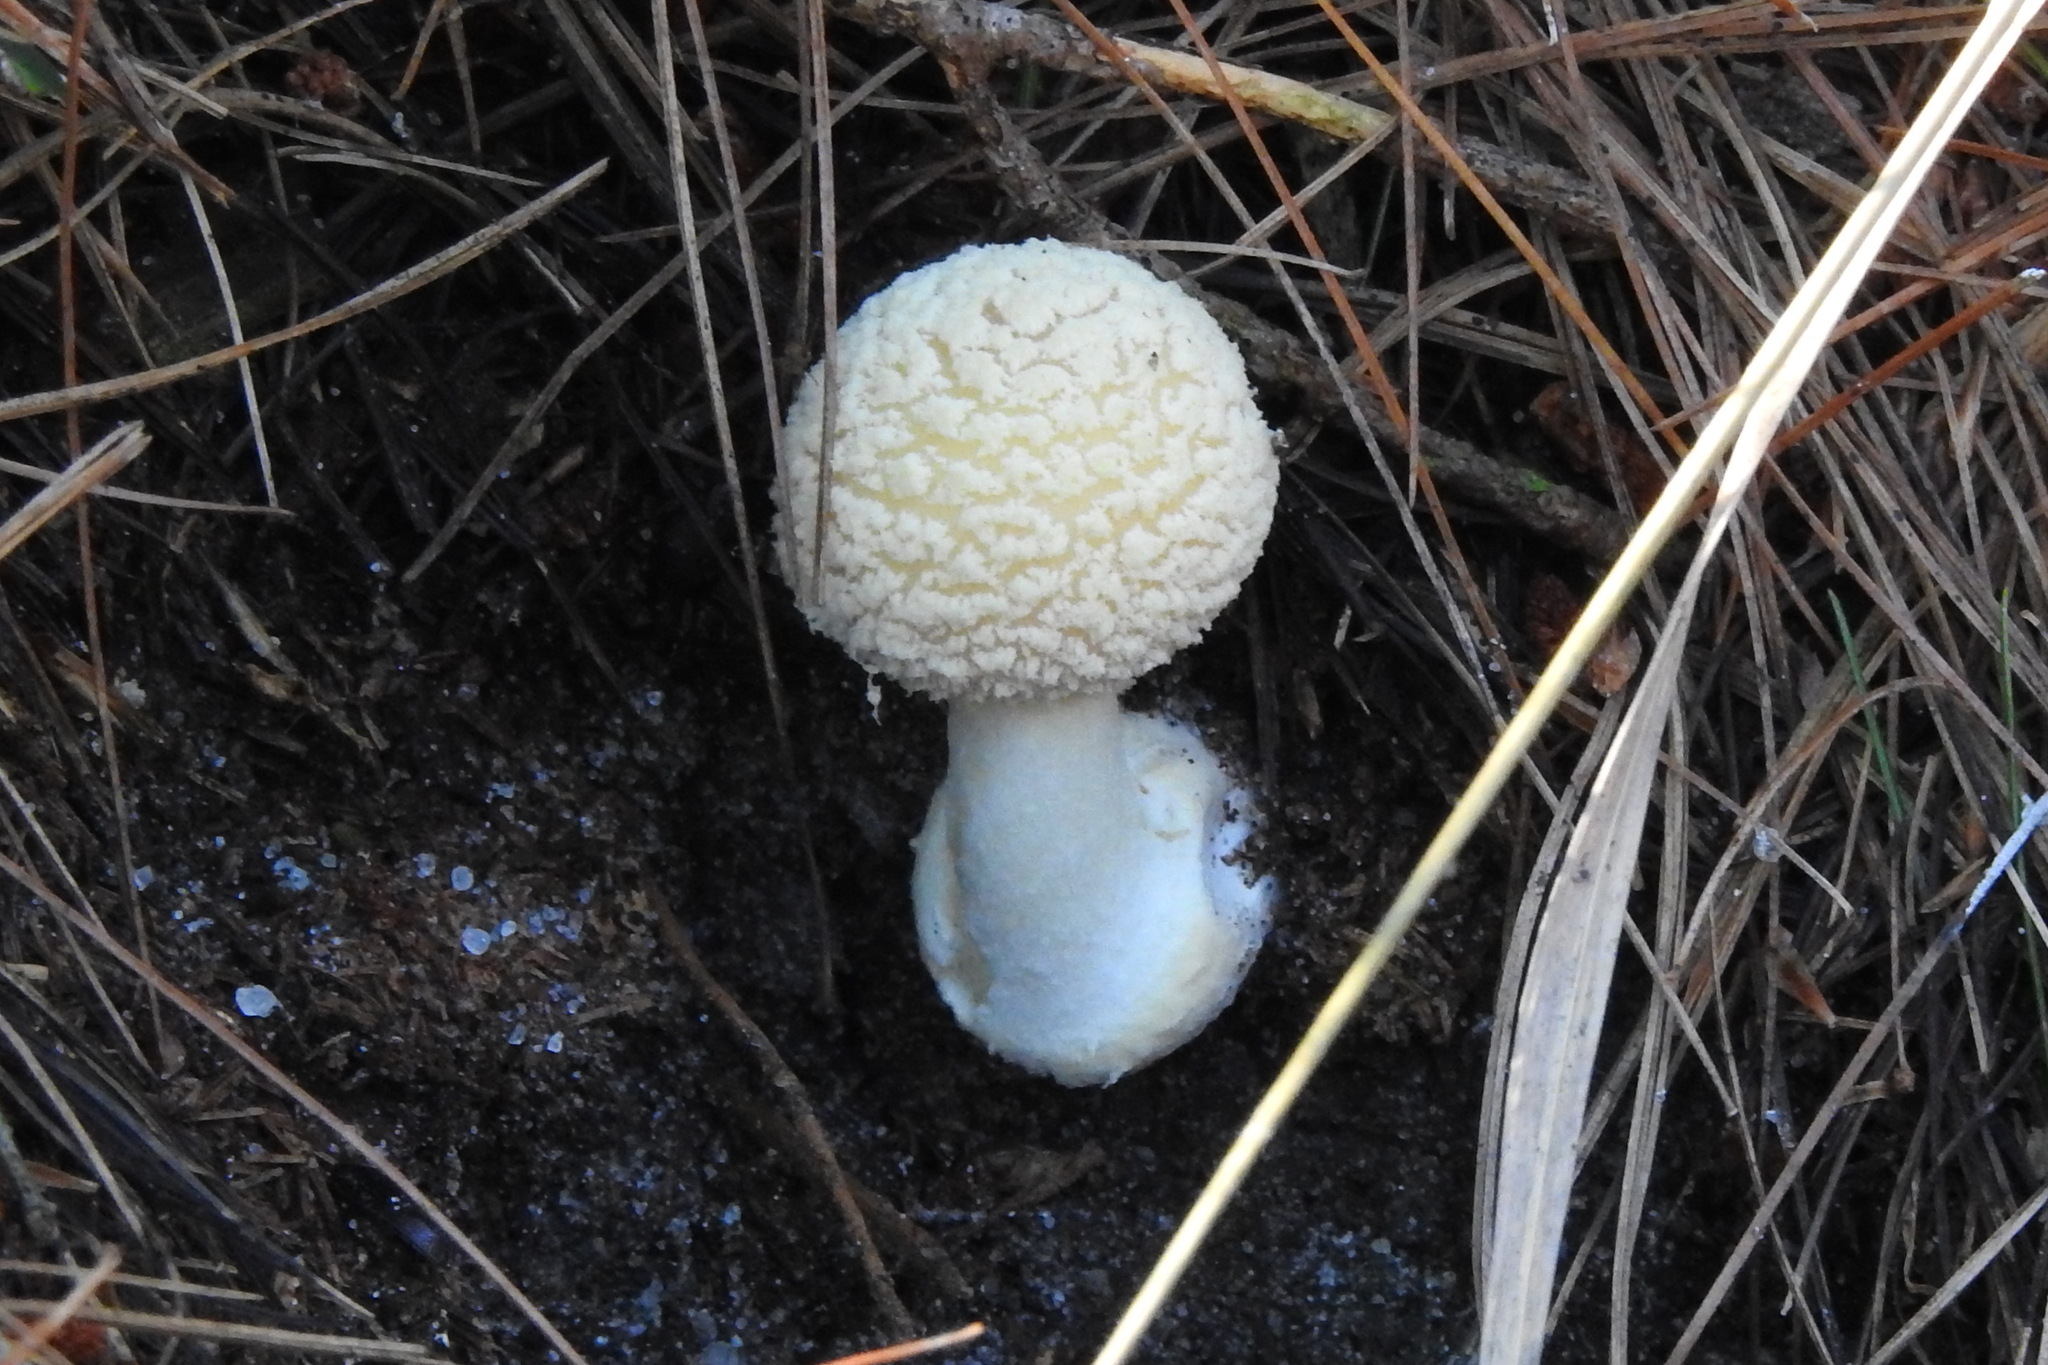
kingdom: Fungi
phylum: Basidiomycota
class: Agaricomycetes
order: Agaricales
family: Amanitaceae
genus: Amanita
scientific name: Amanita crenulata
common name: Poison champagne amanita
